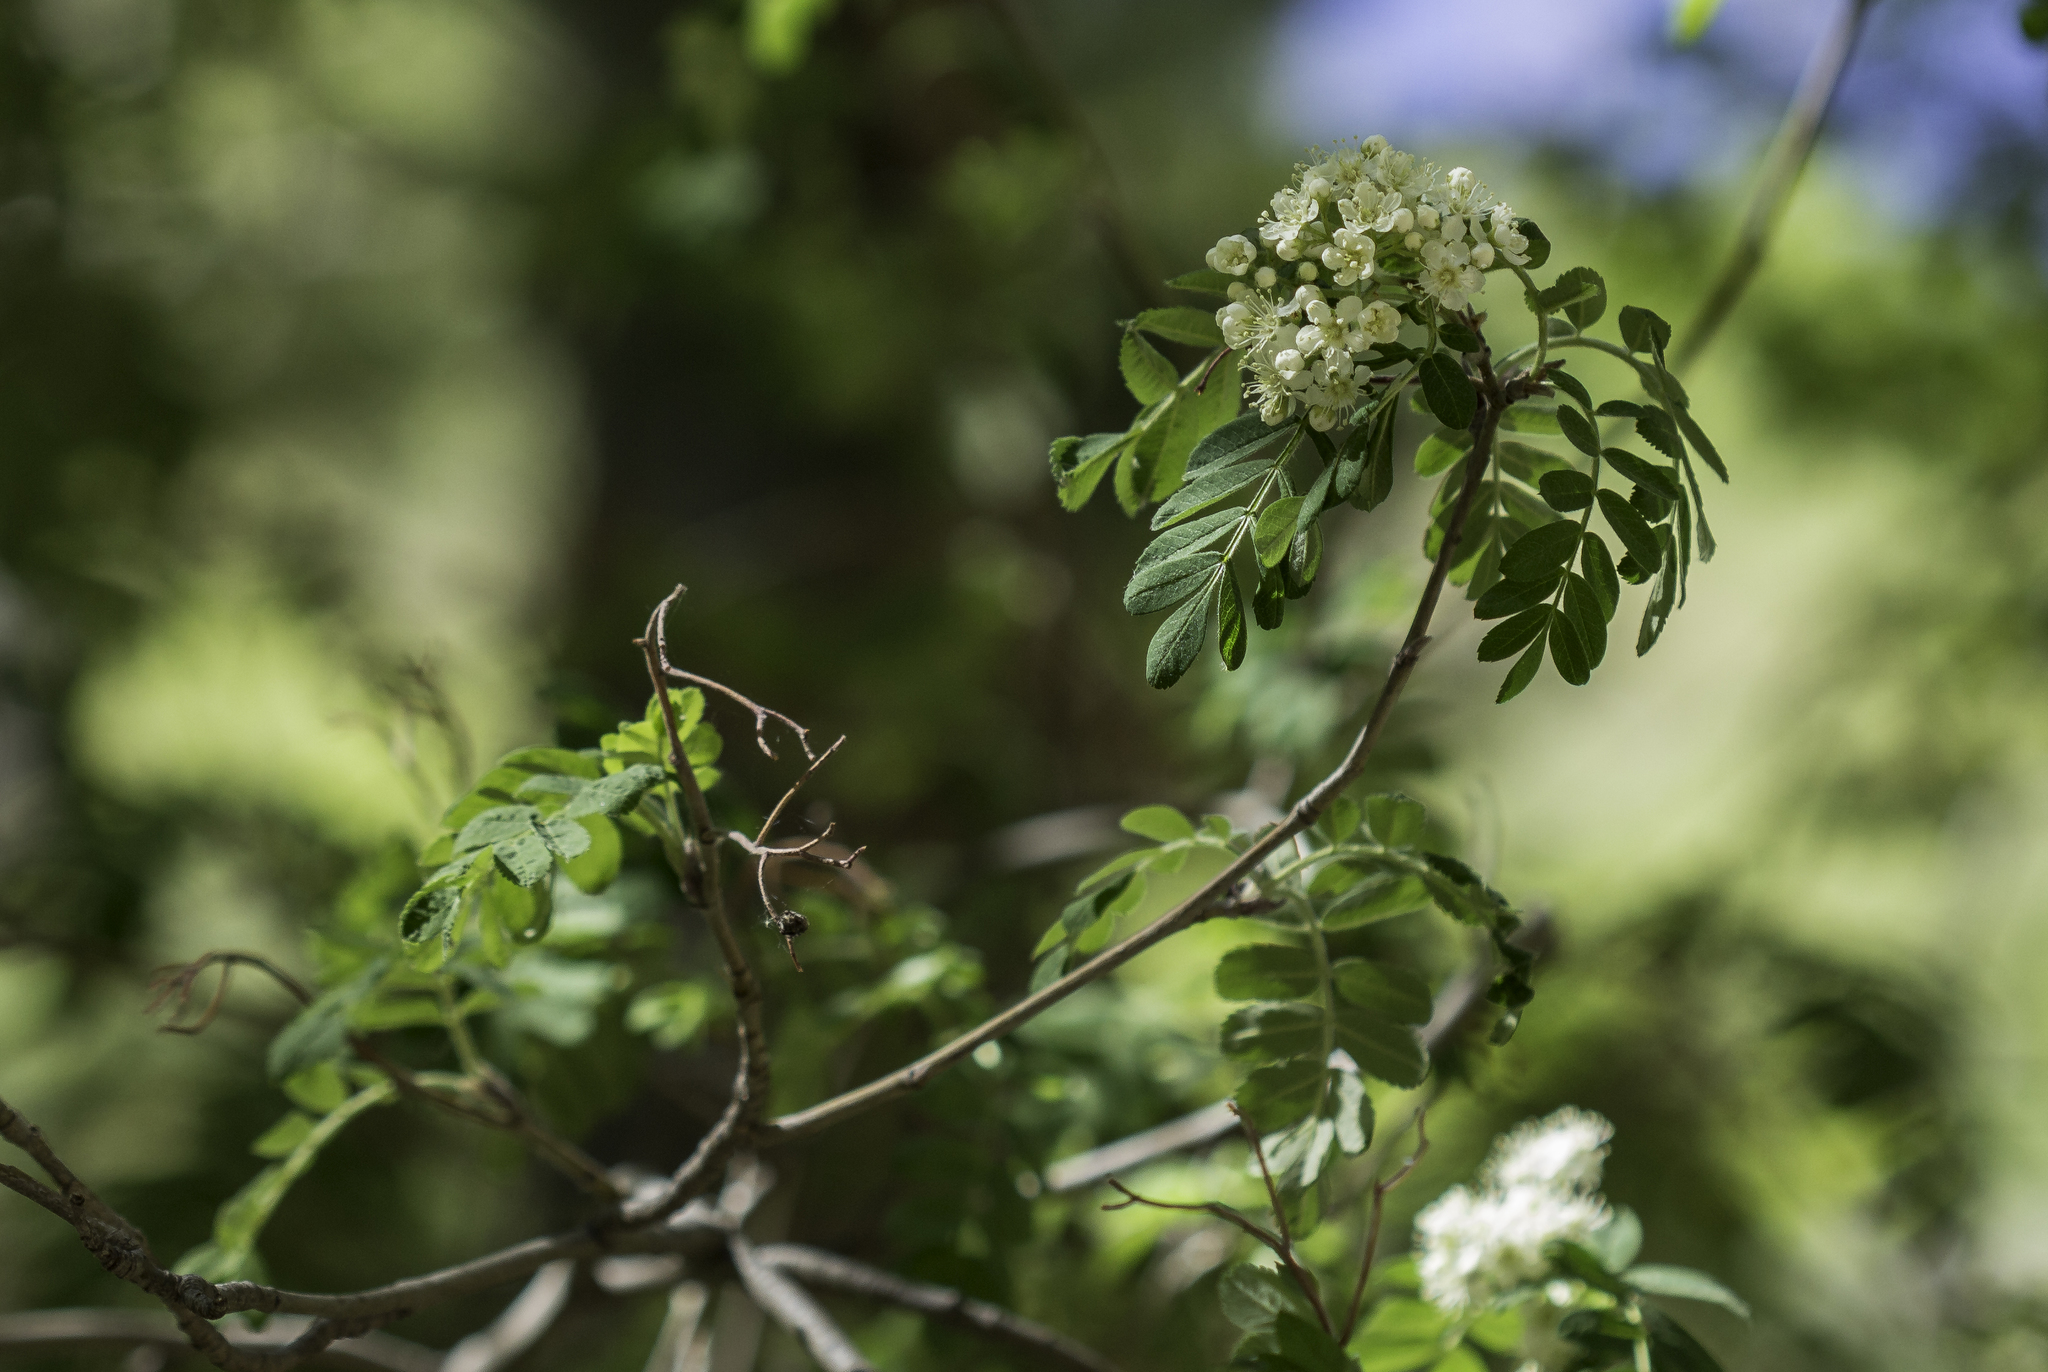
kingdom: Plantae
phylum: Tracheophyta
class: Magnoliopsida
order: Rosales
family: Rosaceae
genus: Sorbus
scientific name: Sorbus scopulina
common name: Greene's mountain-ash
